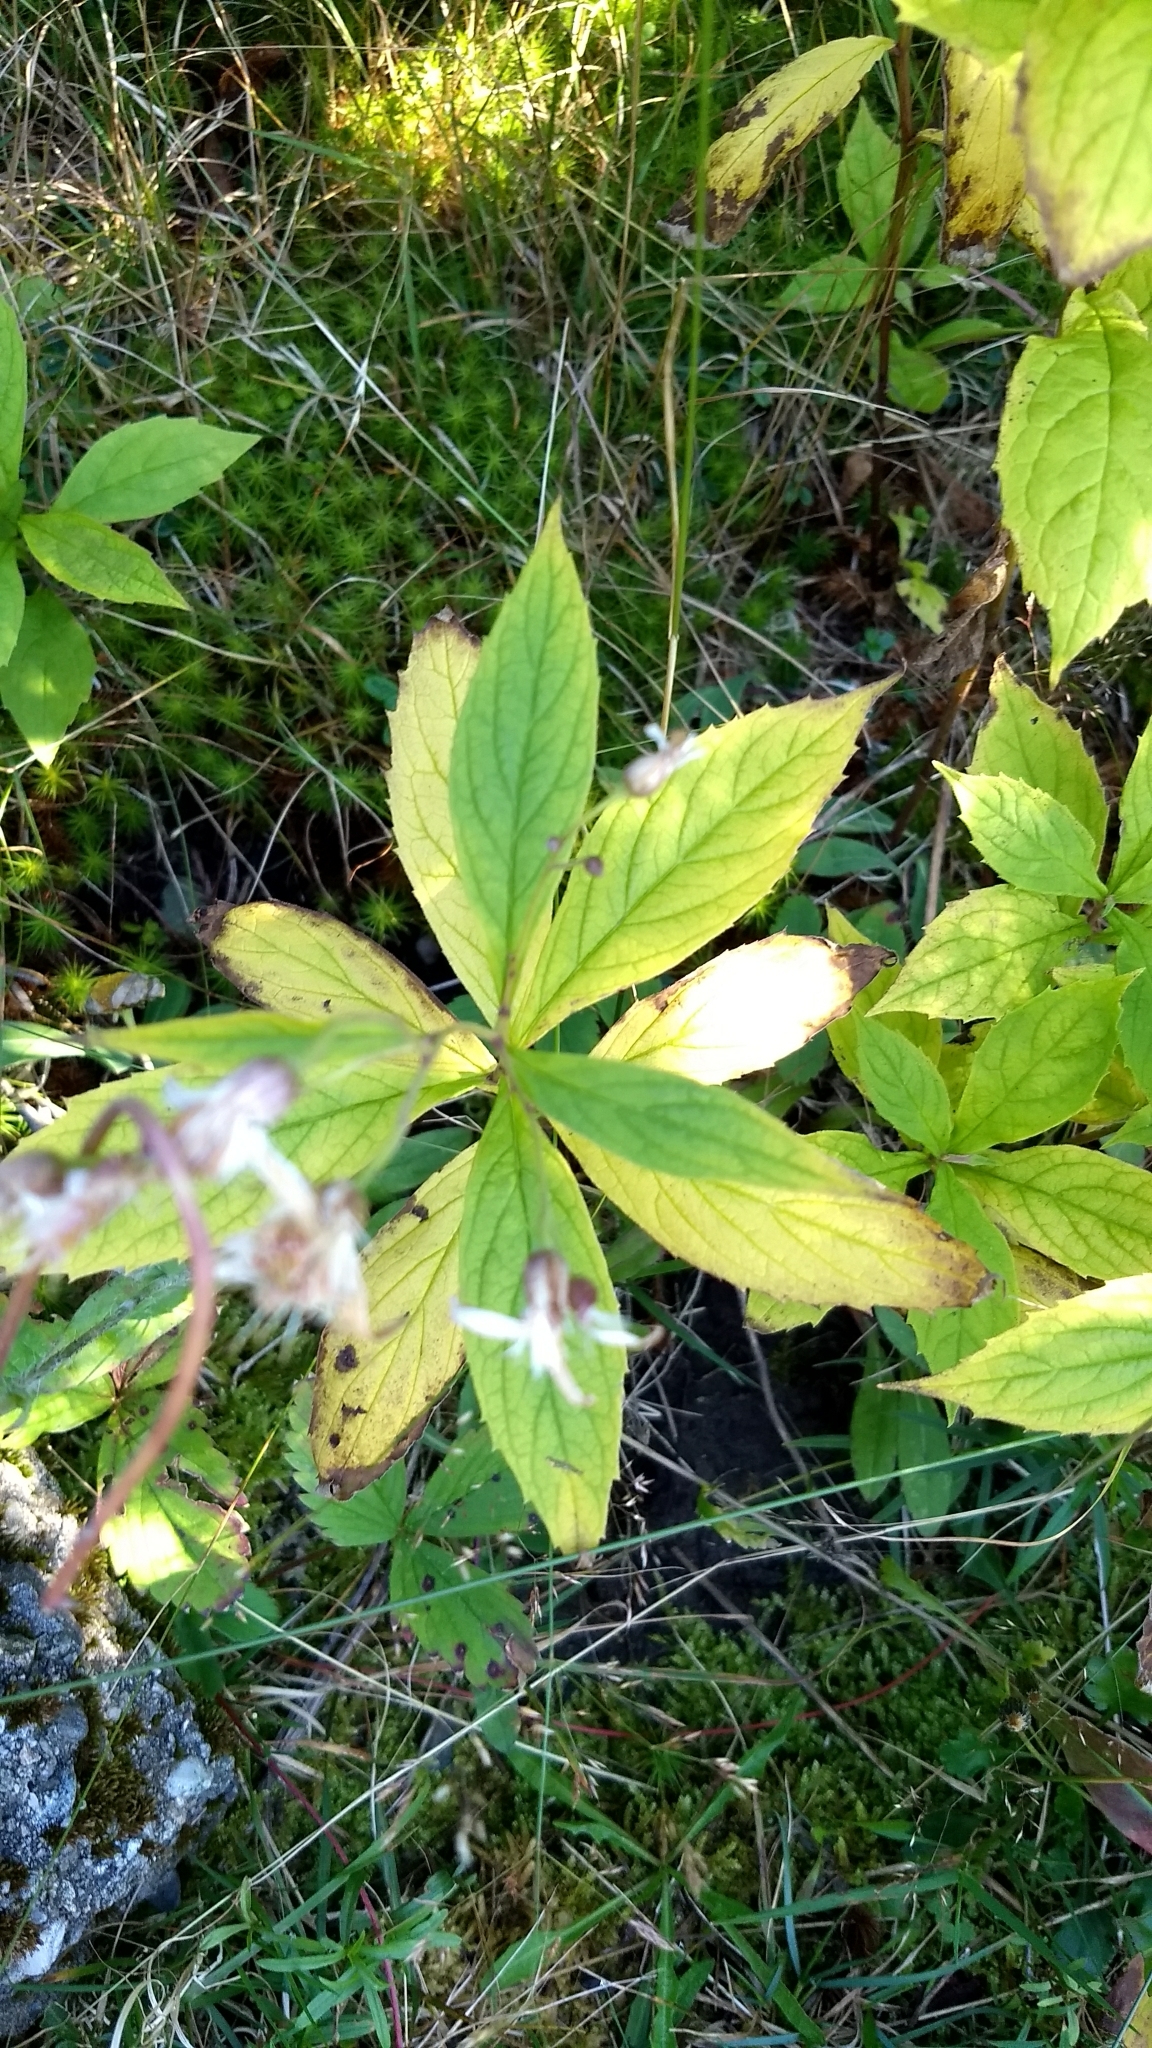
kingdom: Plantae
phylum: Tracheophyta
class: Magnoliopsida
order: Asterales
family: Asteraceae
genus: Oclemena
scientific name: Oclemena acuminata
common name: Mountain aster
